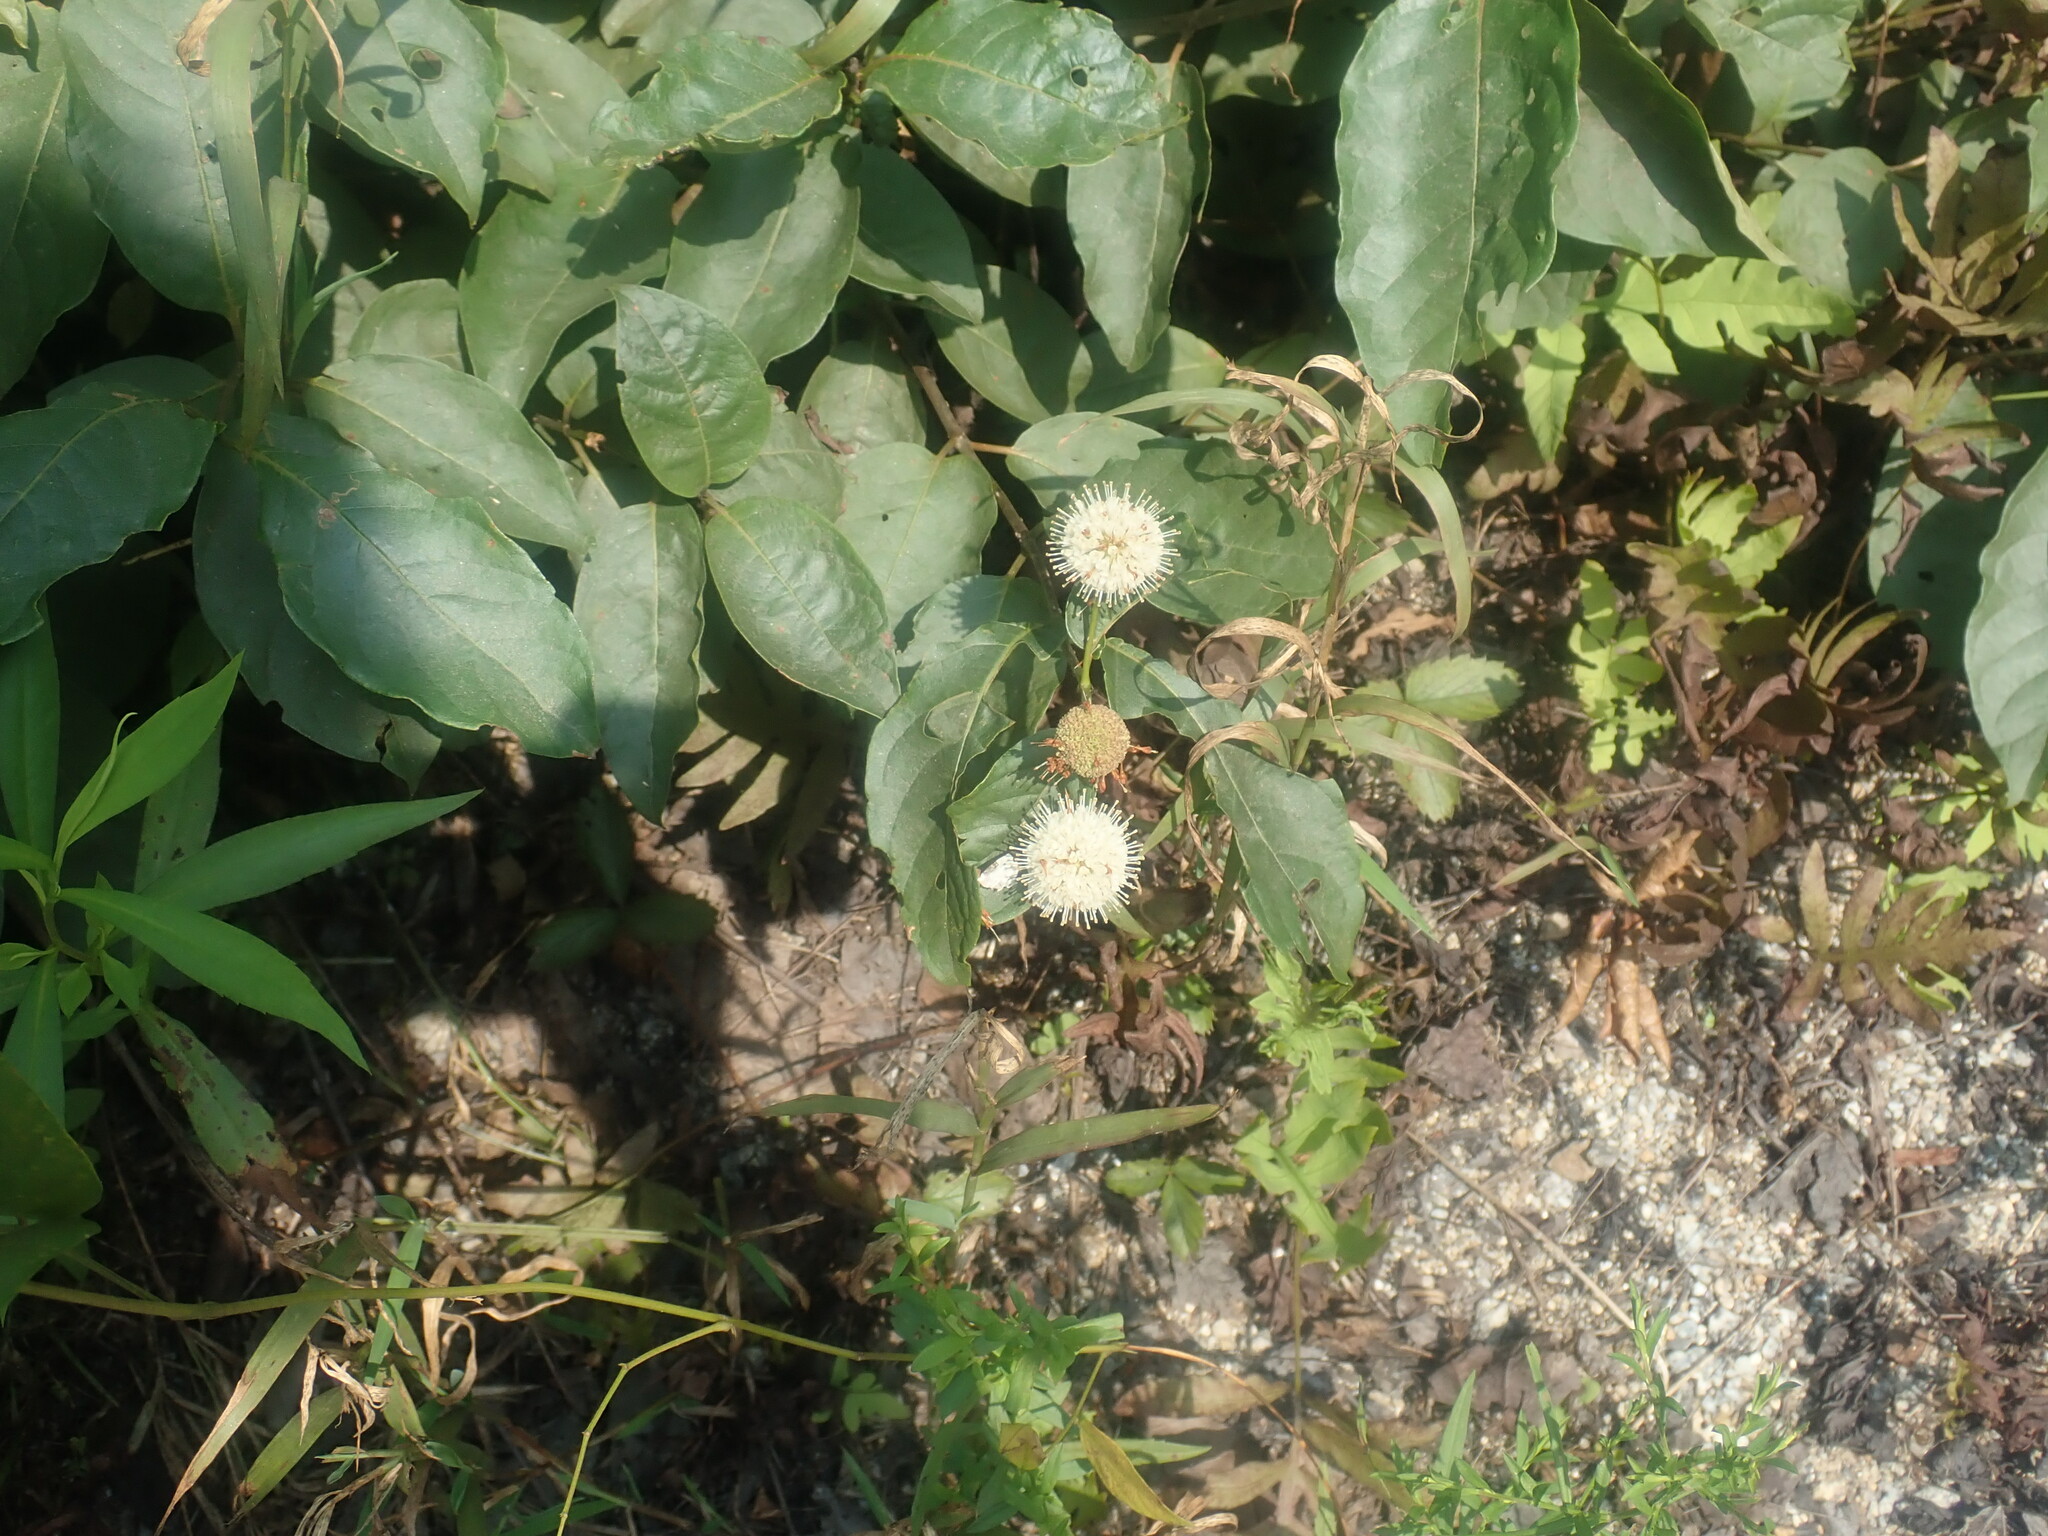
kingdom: Plantae
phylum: Tracheophyta
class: Magnoliopsida
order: Gentianales
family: Rubiaceae
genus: Cephalanthus
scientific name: Cephalanthus occidentalis
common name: Button-willow
